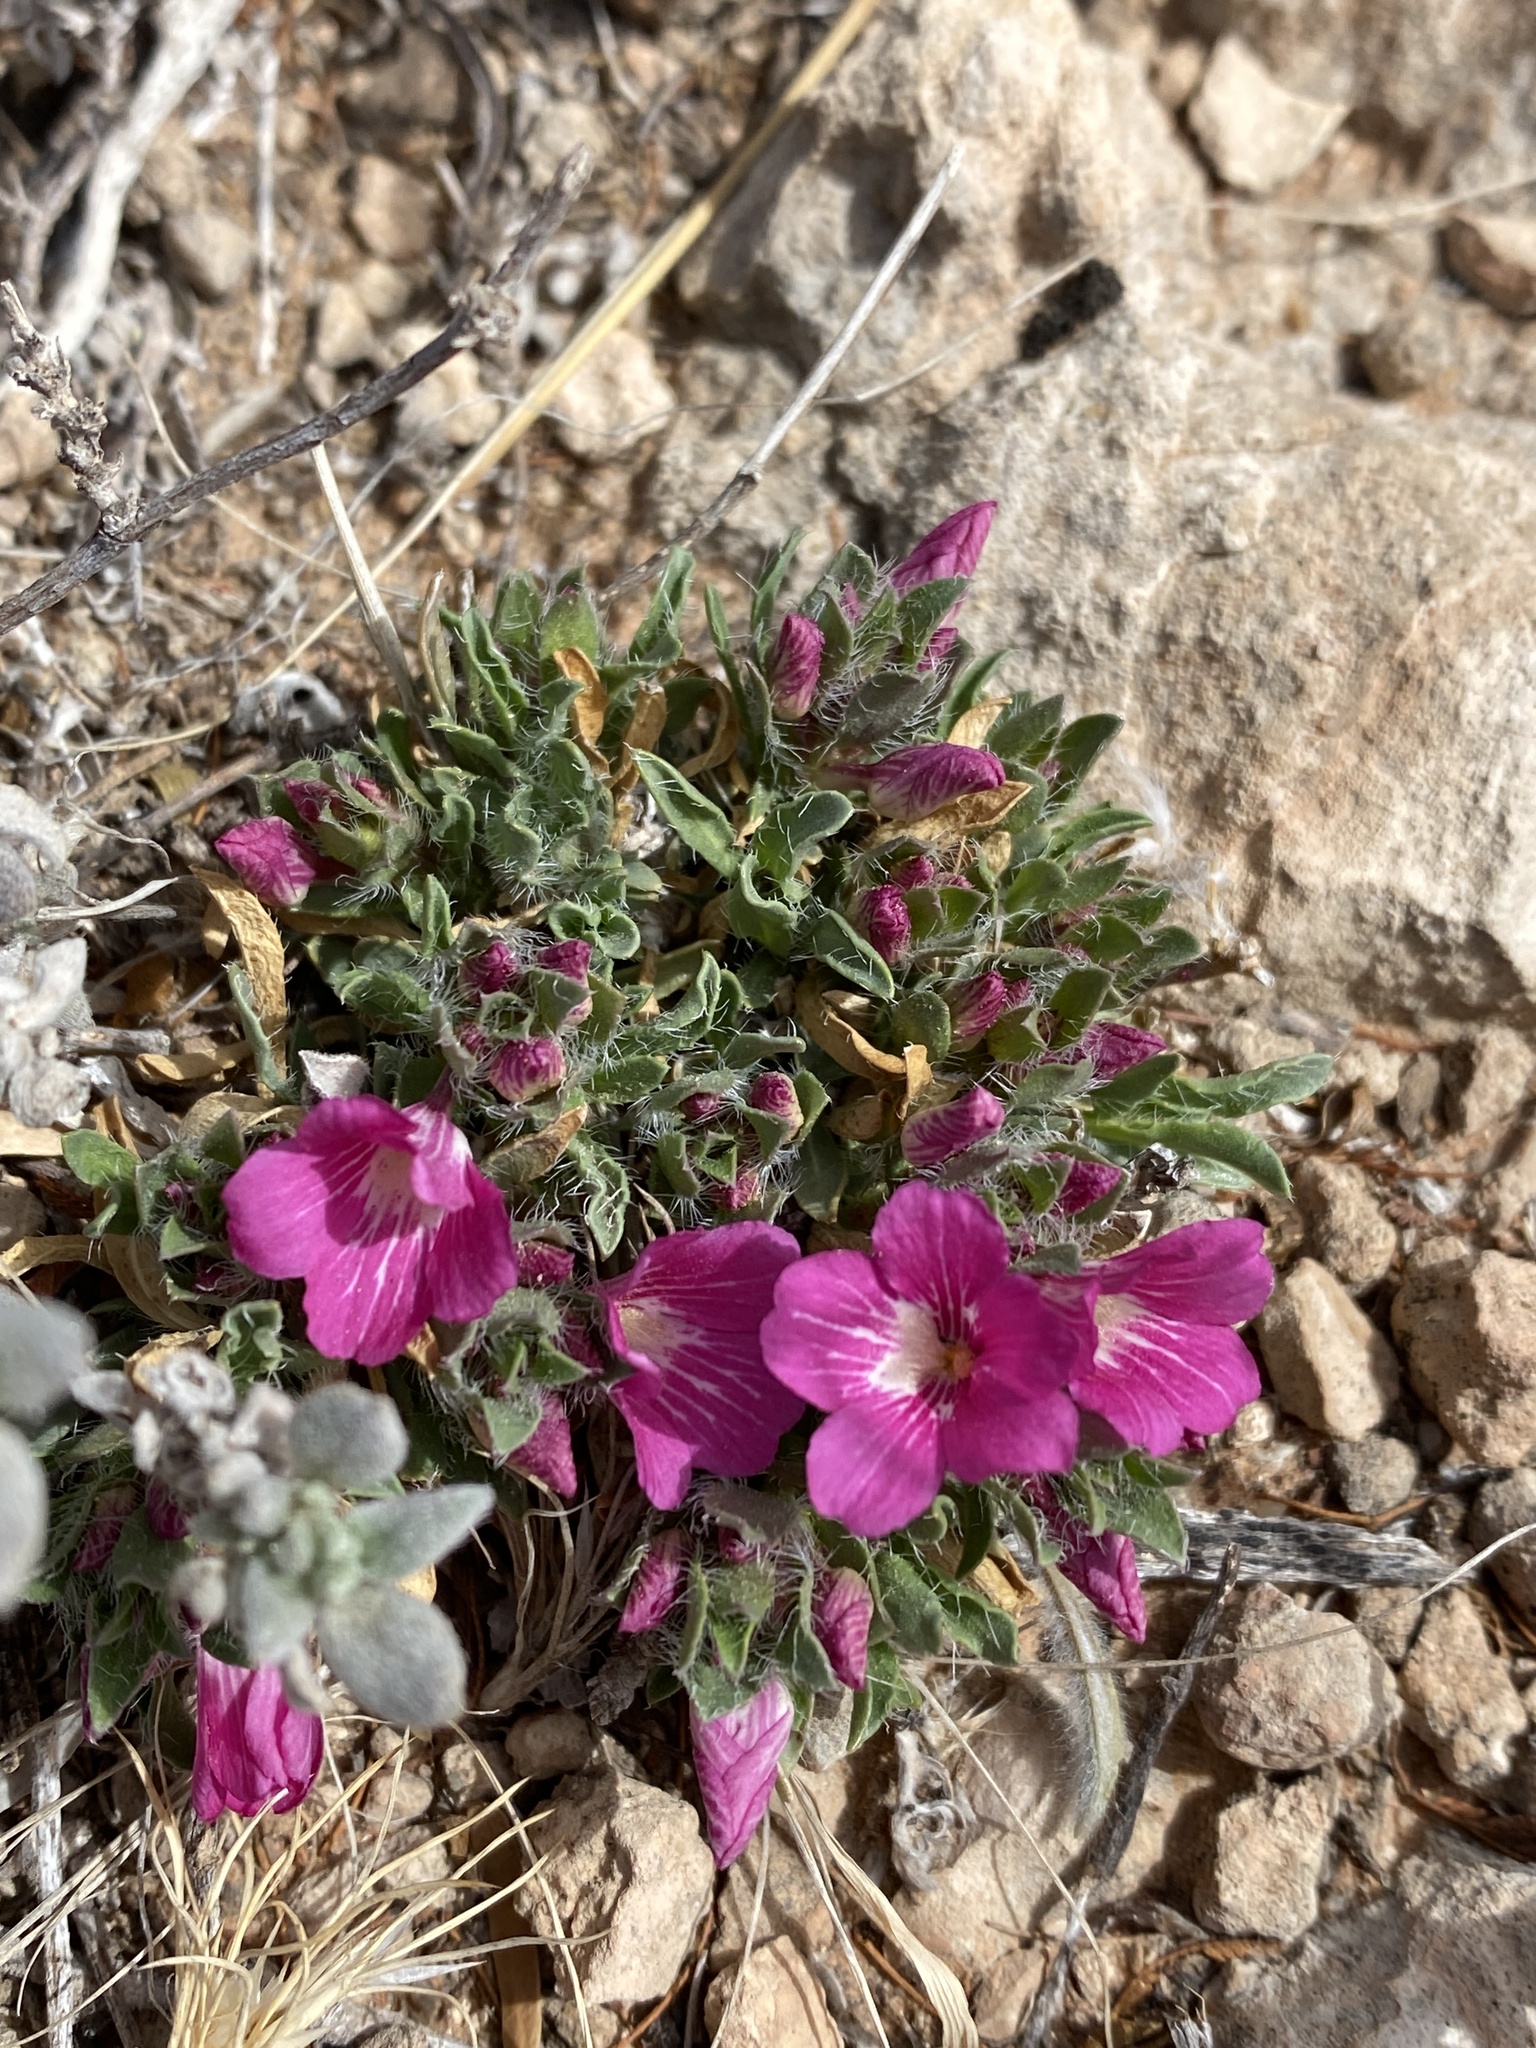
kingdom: Plantae
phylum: Tracheophyta
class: Magnoliopsida
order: Lamiales
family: Acanthaceae
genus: Stenandrium
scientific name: Stenandrium barbatum
